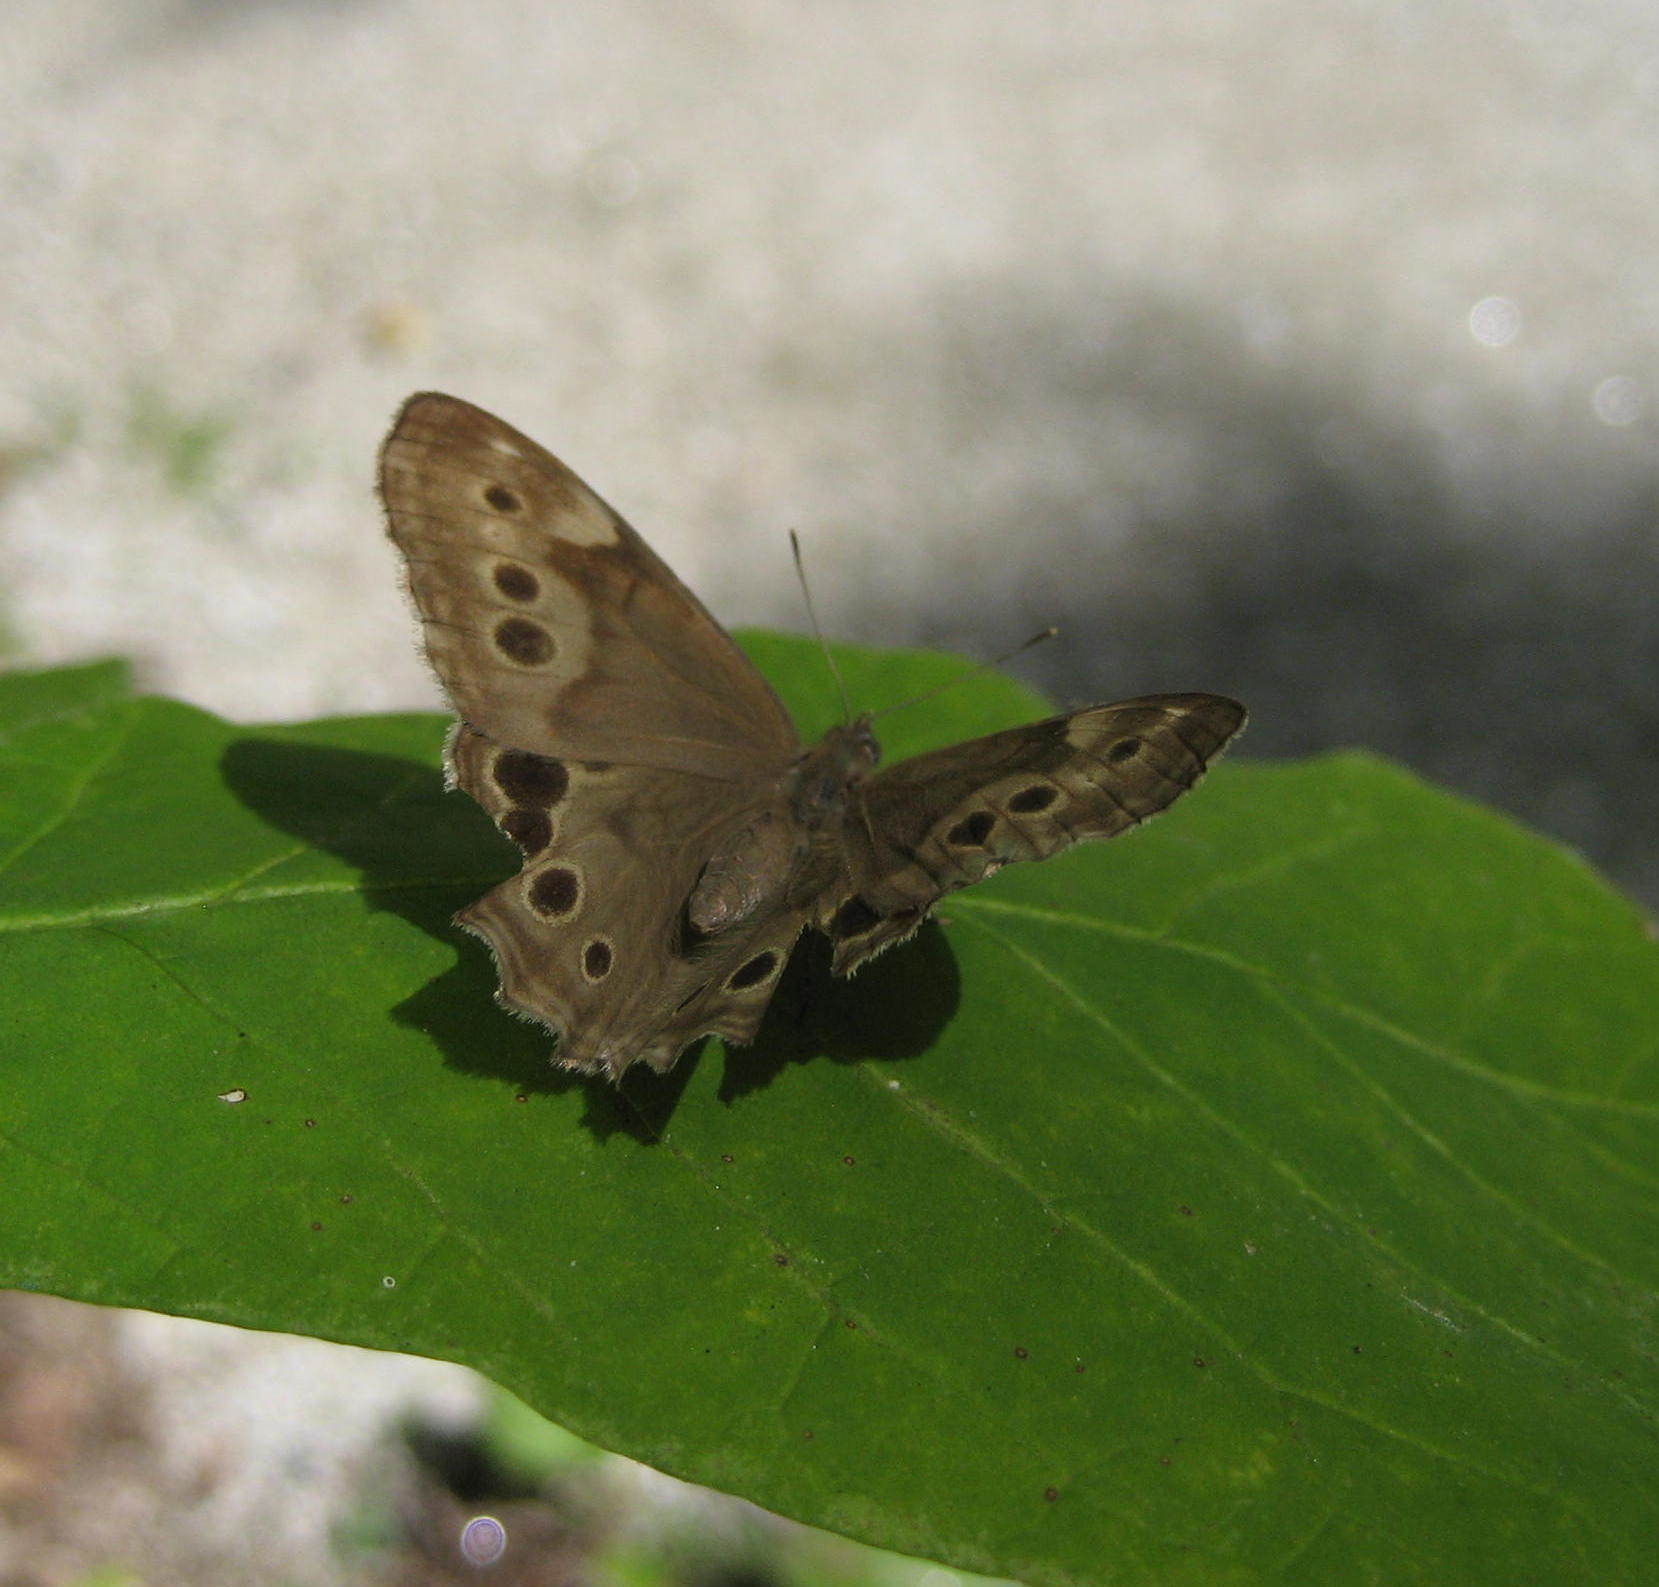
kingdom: Animalia
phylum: Arthropoda
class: Insecta
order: Lepidoptera
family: Nymphalidae
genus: Lethe
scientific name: Lethe anthedon
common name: Northern pearly-eye
